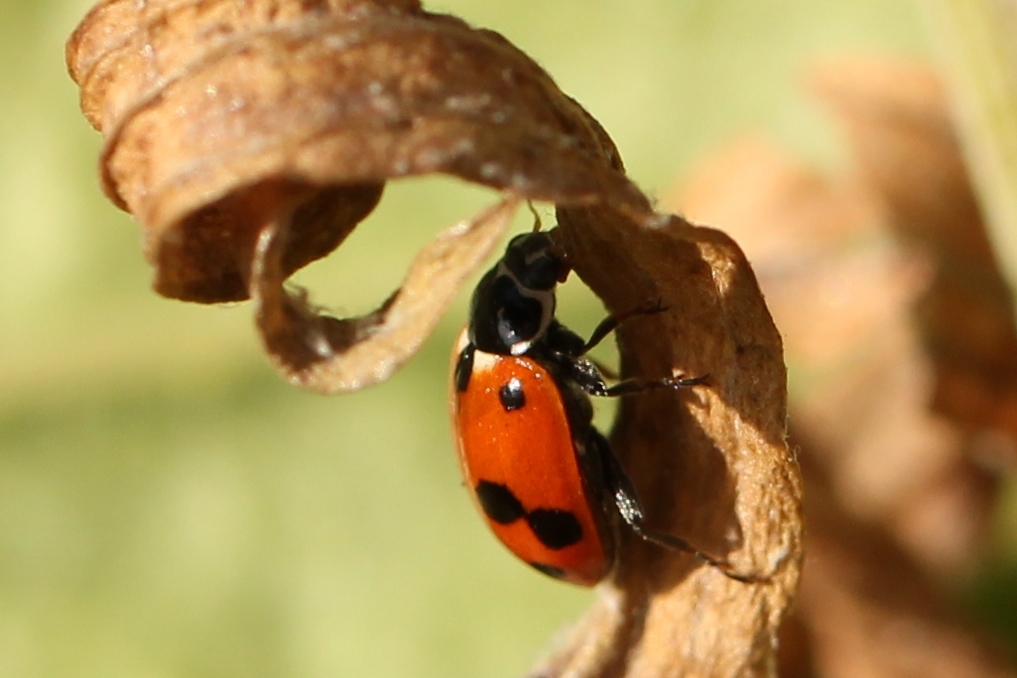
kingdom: Animalia
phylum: Arthropoda
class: Insecta
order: Coleoptera
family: Coccinellidae
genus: Hippodamia
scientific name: Hippodamia variegata
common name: Ladybird beetle
